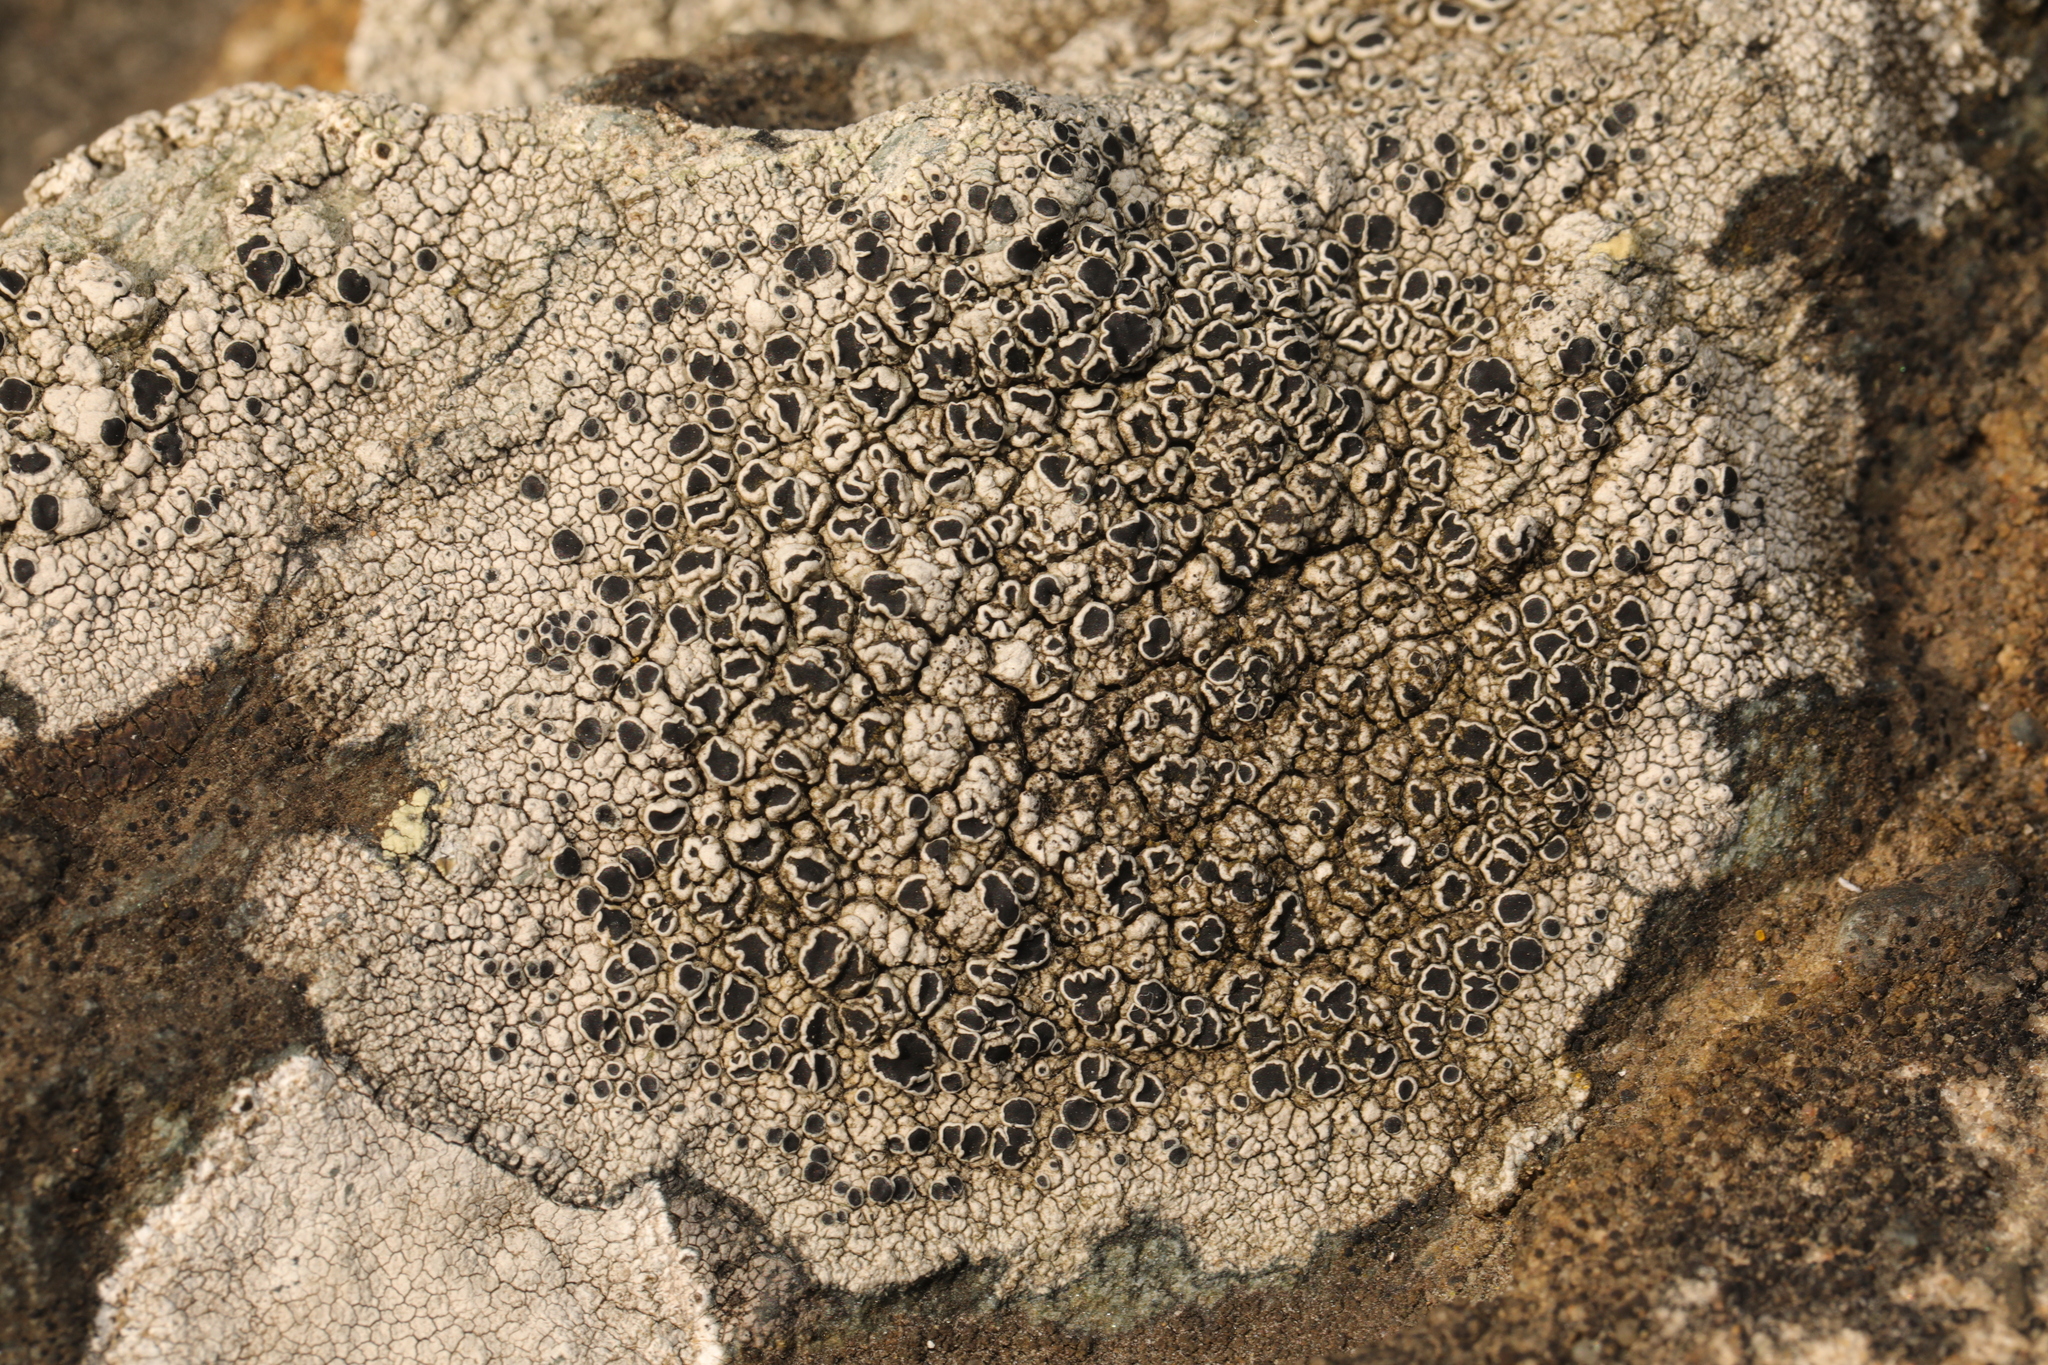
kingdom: Fungi
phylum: Ascomycota
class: Lecanoromycetes
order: Lecanorales
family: Tephromelataceae
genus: Tephromela
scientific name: Tephromela atra
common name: Black shields
